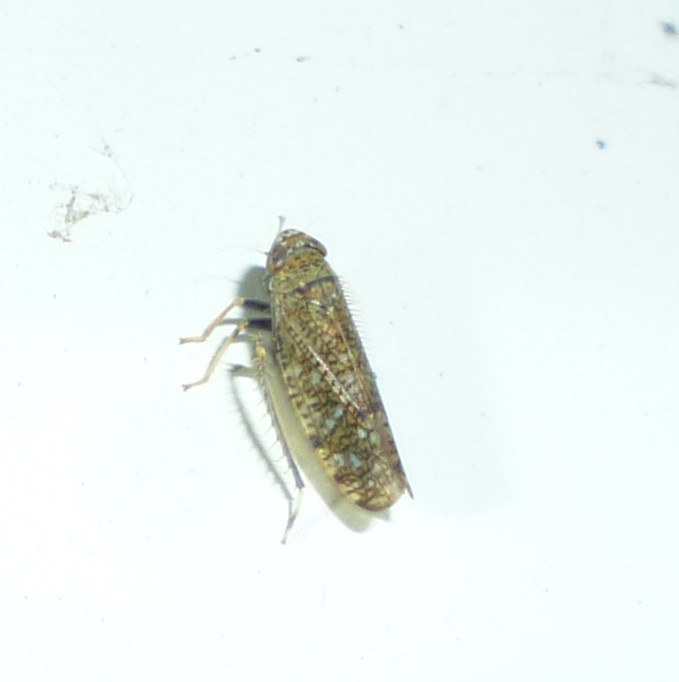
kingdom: Animalia
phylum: Arthropoda
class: Insecta
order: Hemiptera
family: Cicadellidae
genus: Orientus
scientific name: Orientus ishidae
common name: Japanese leafhopper
